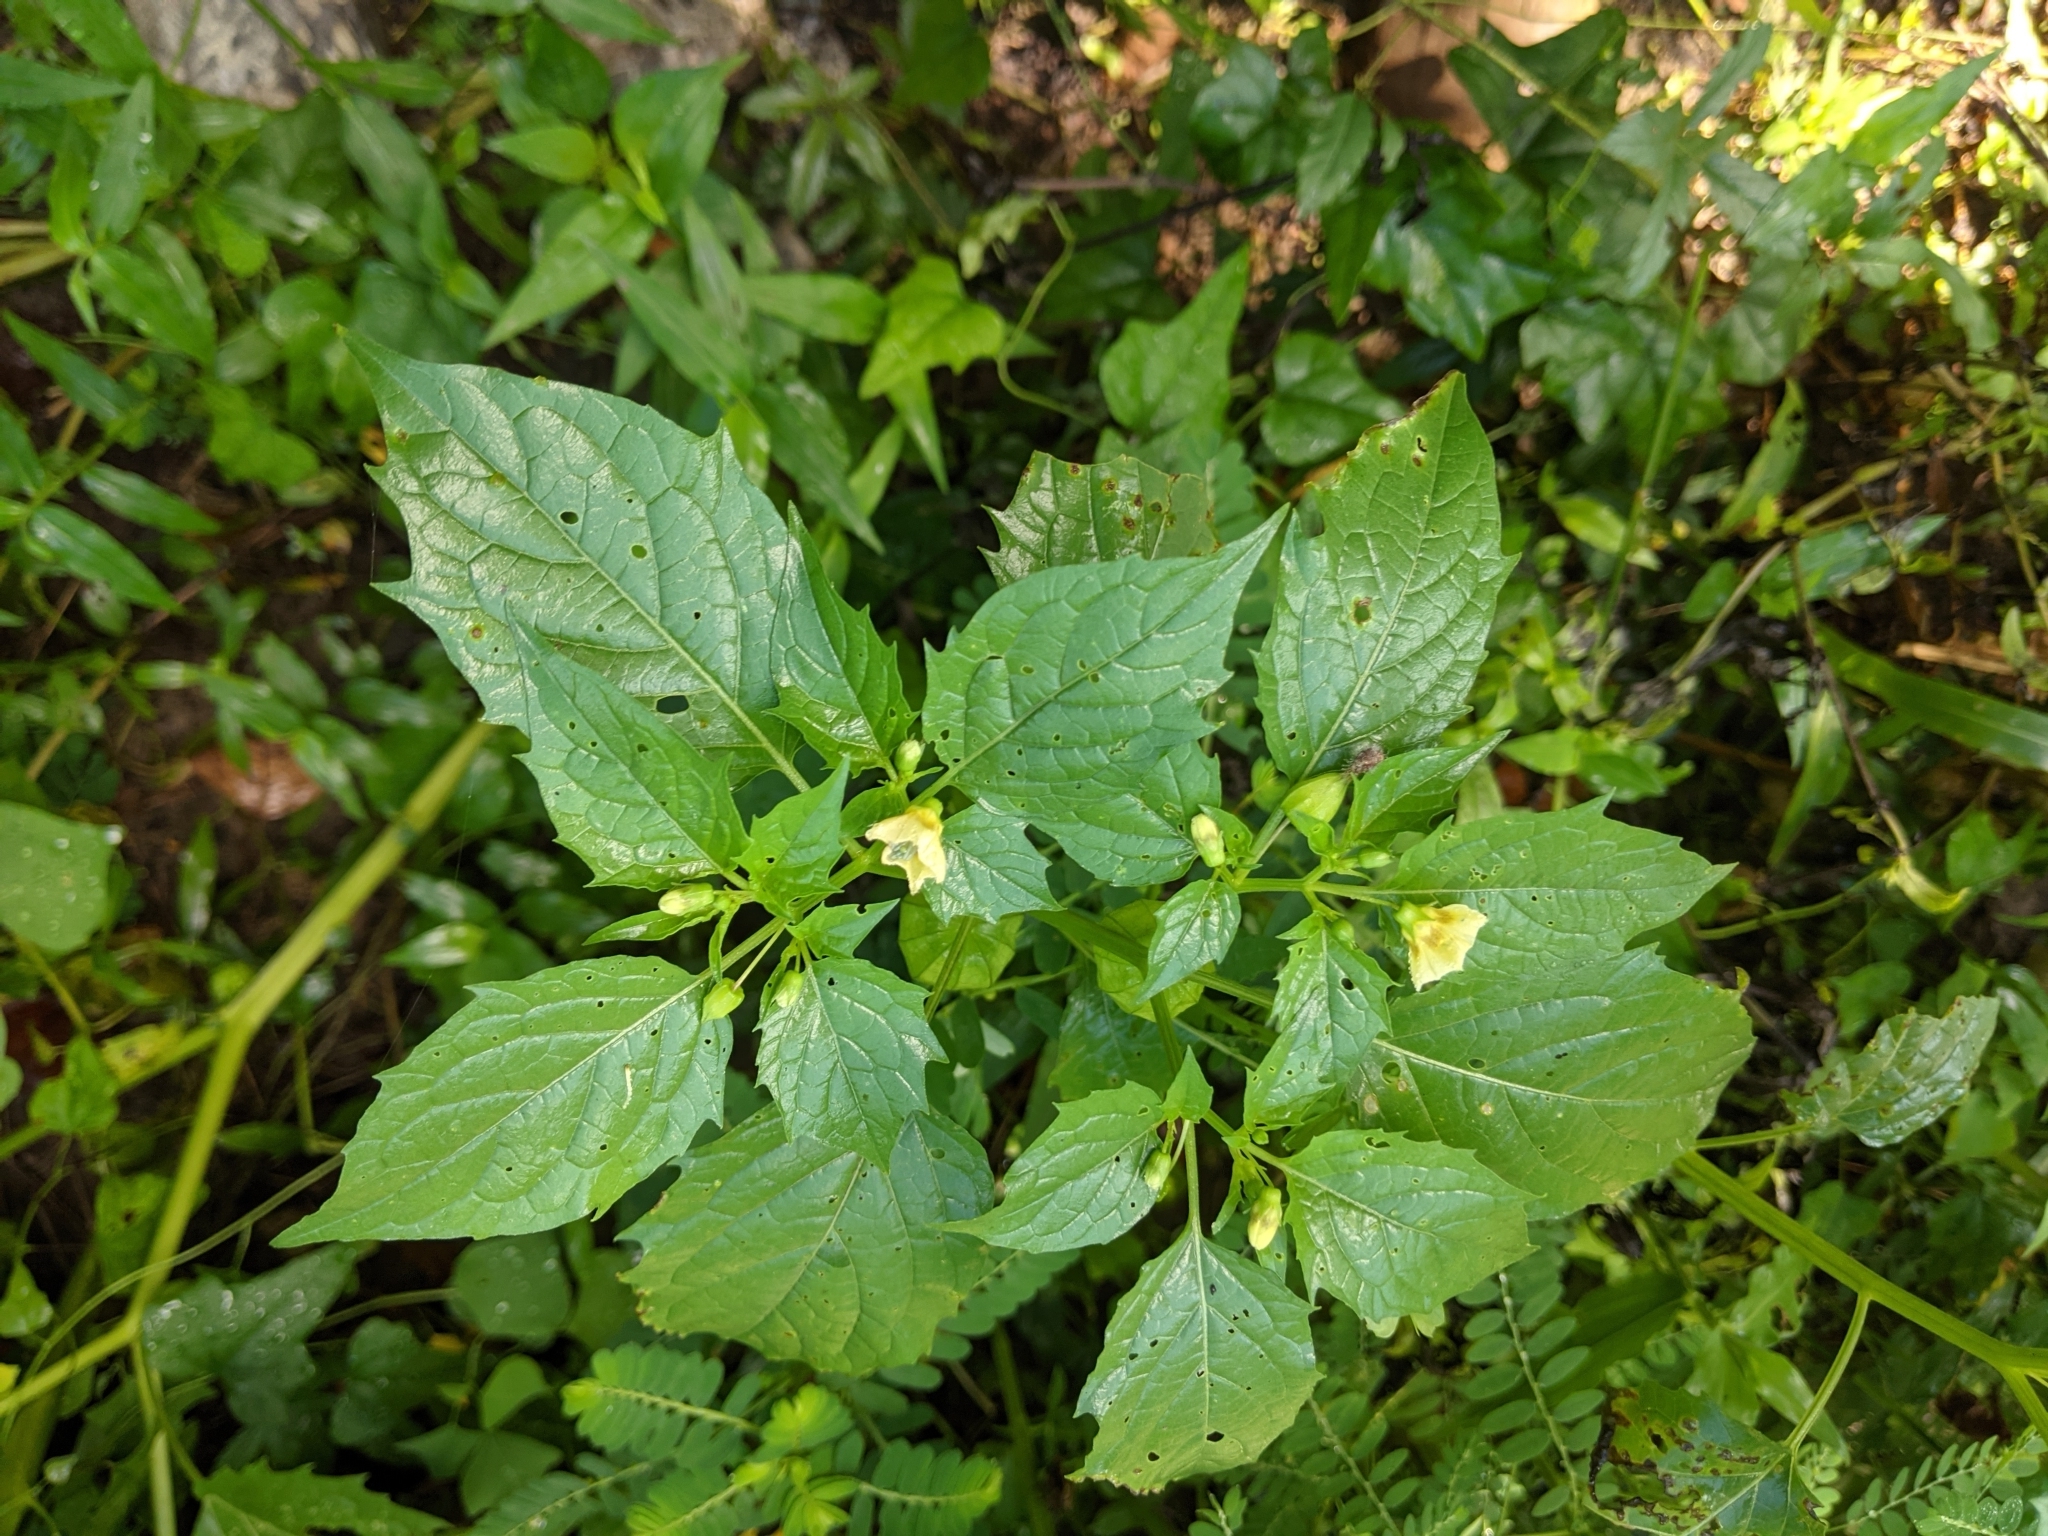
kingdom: Plantae
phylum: Tracheophyta
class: Magnoliopsida
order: Solanales
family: Solanaceae
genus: Physalis
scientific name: Physalis angulata
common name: Angular winter-cherry
